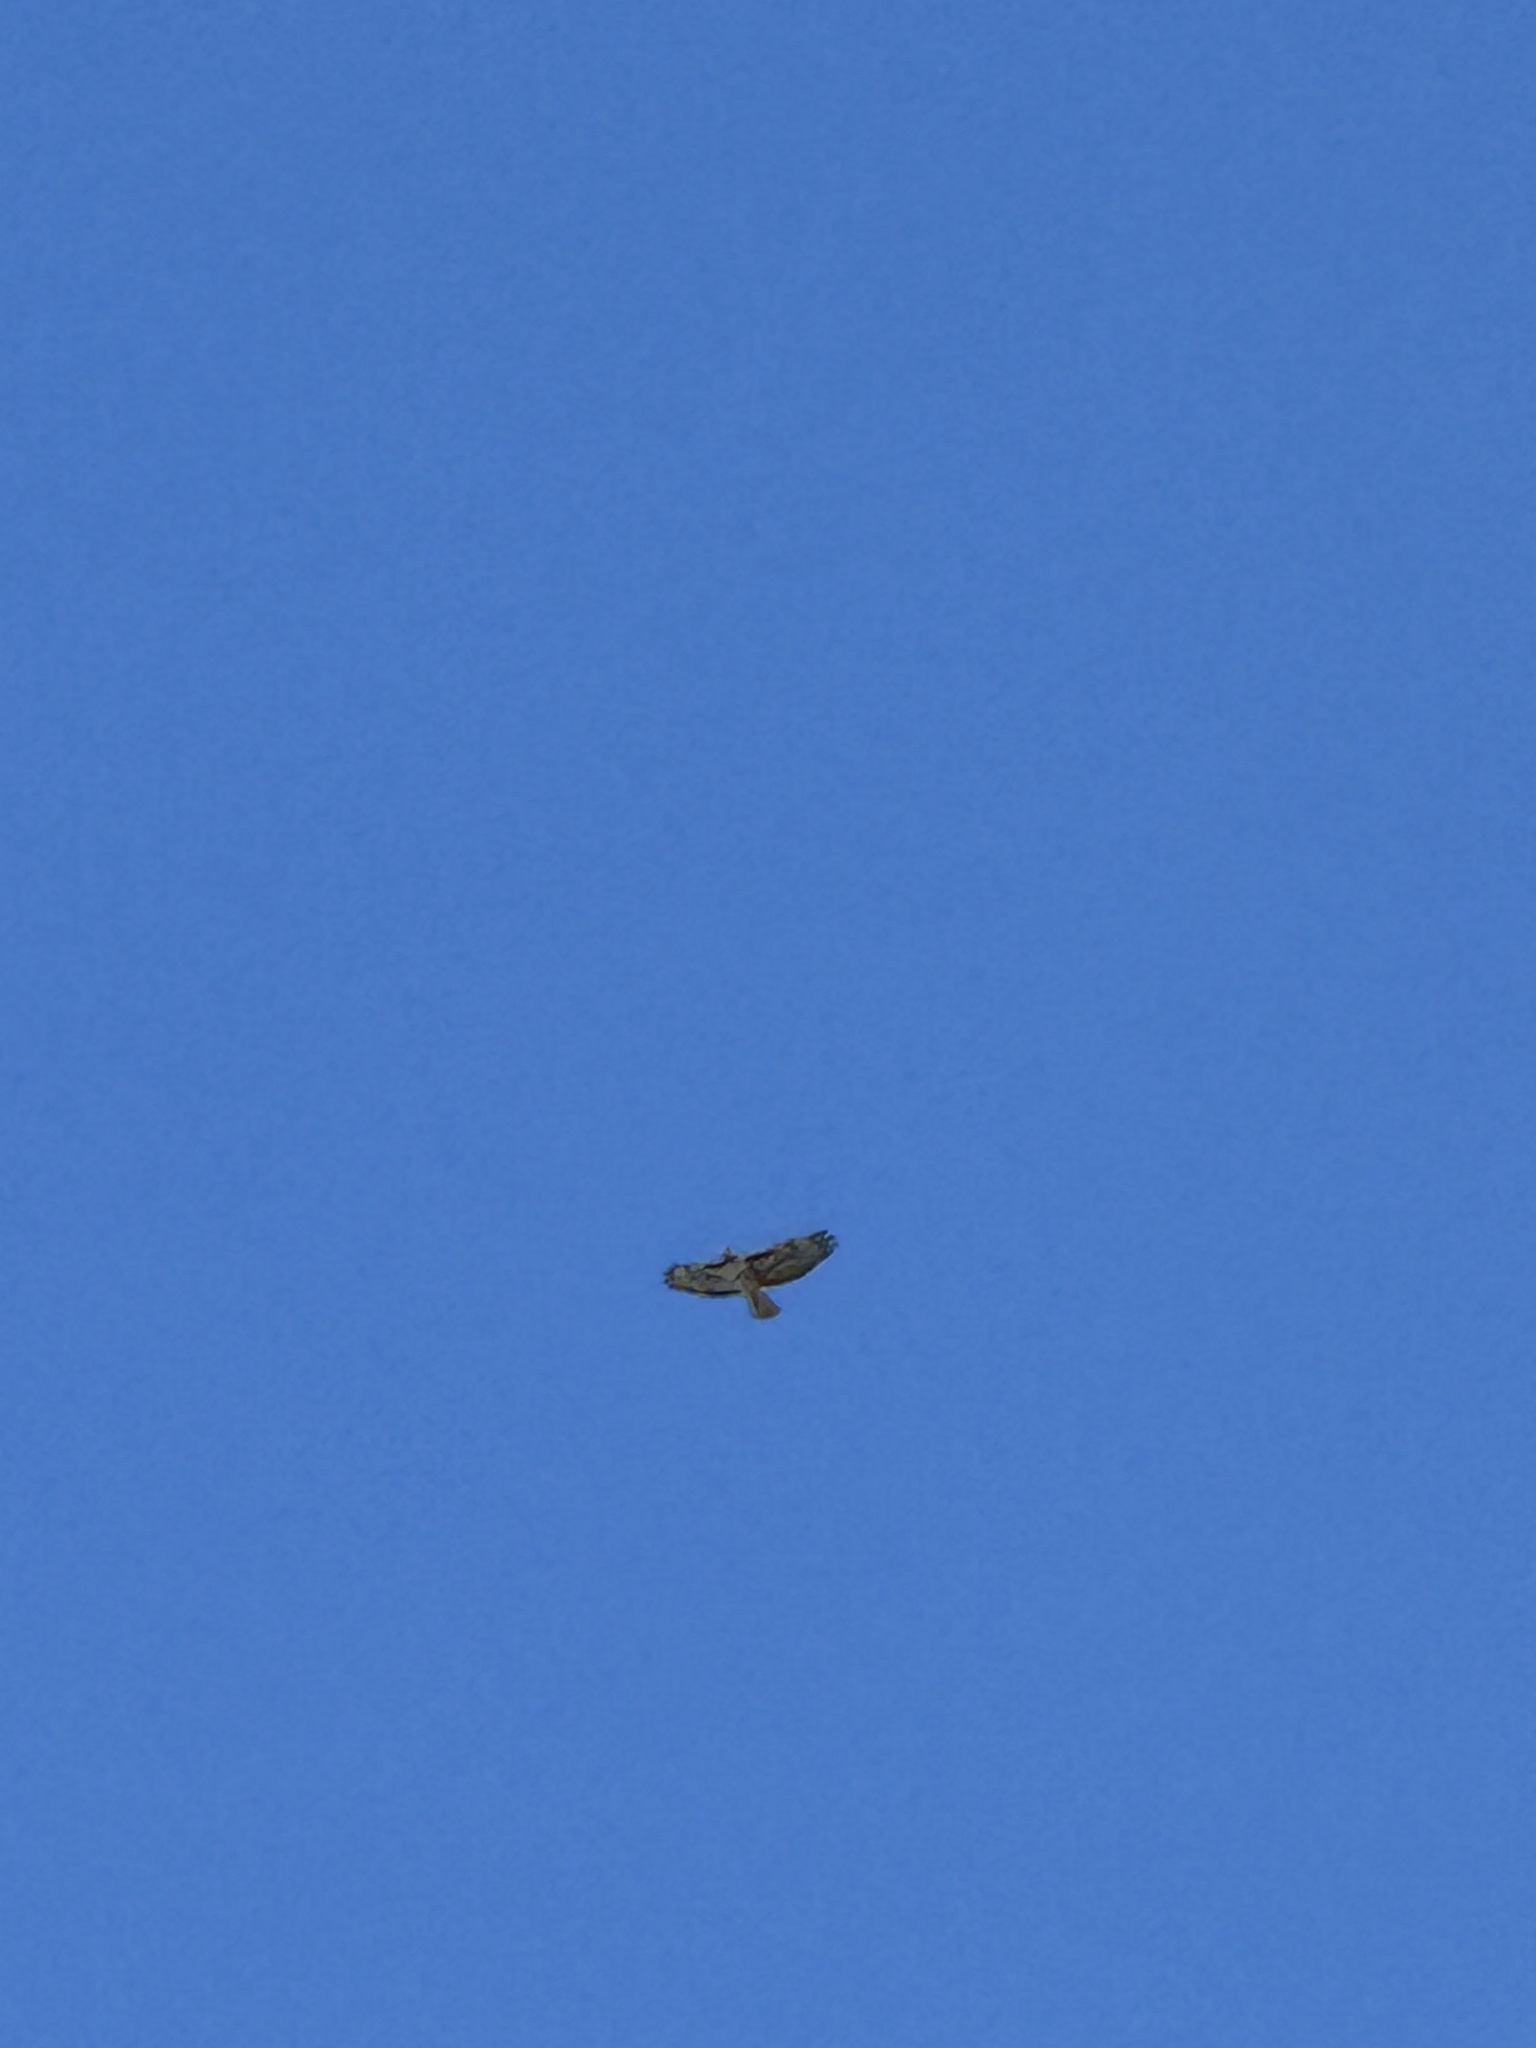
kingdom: Animalia
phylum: Chordata
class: Aves
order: Accipitriformes
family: Accipitridae
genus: Buteo
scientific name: Buteo jamaicensis
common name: Red-tailed hawk
